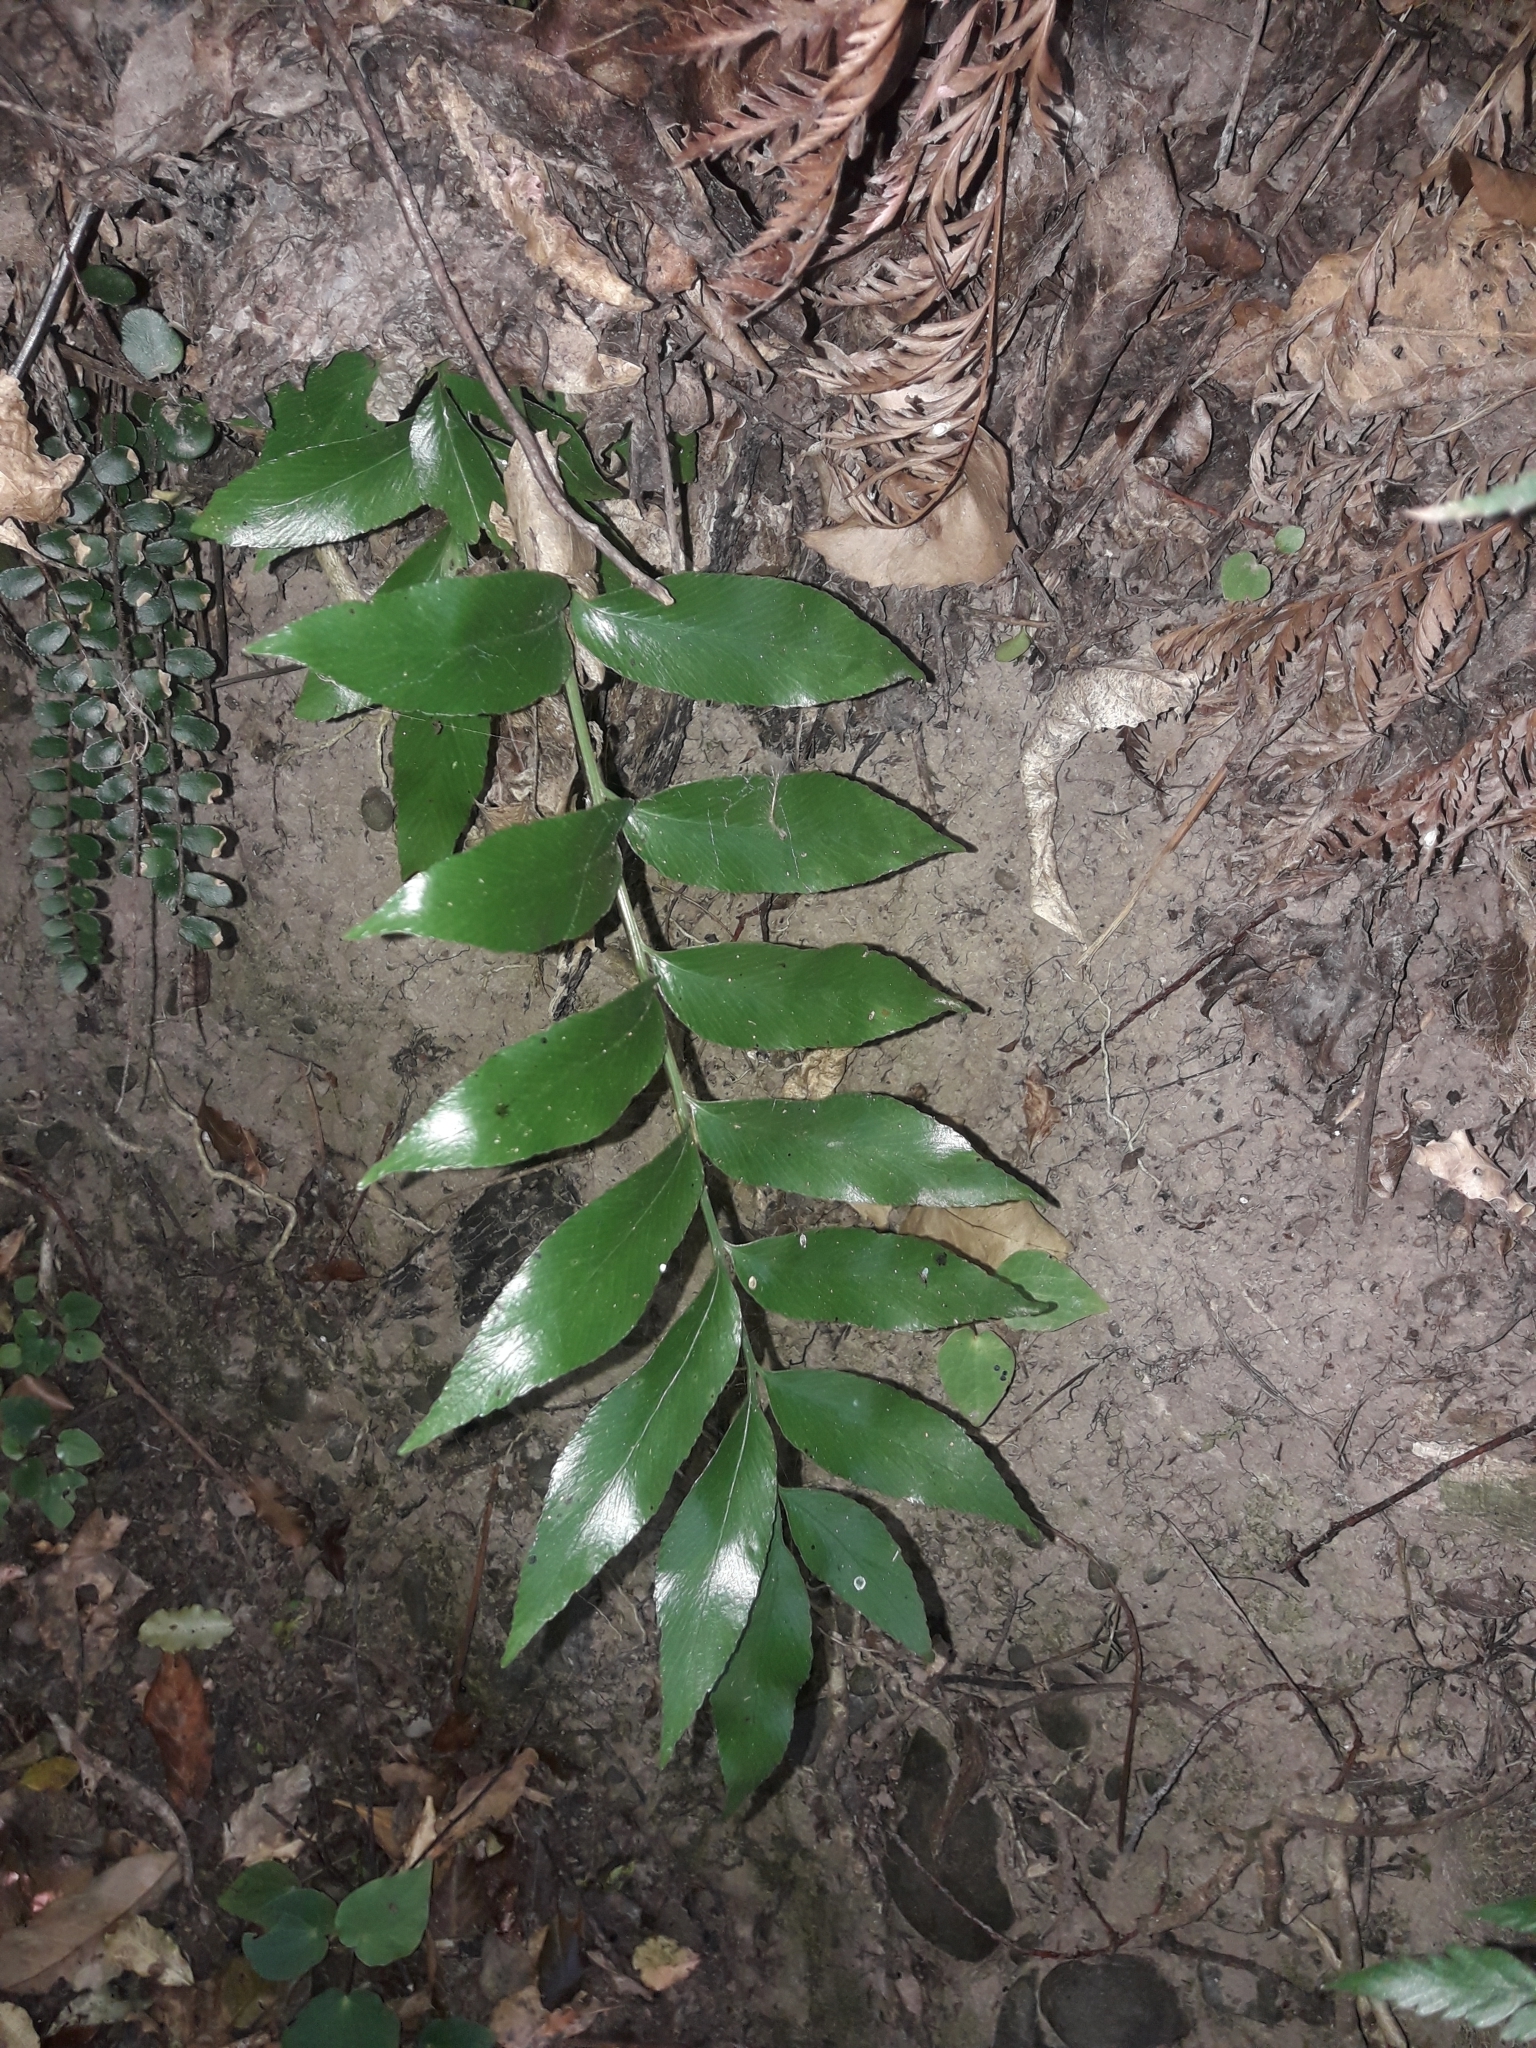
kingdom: Plantae
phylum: Tracheophyta
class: Polypodiopsida
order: Polypodiales
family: Aspleniaceae
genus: Asplenium
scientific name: Asplenium oblongifolium
